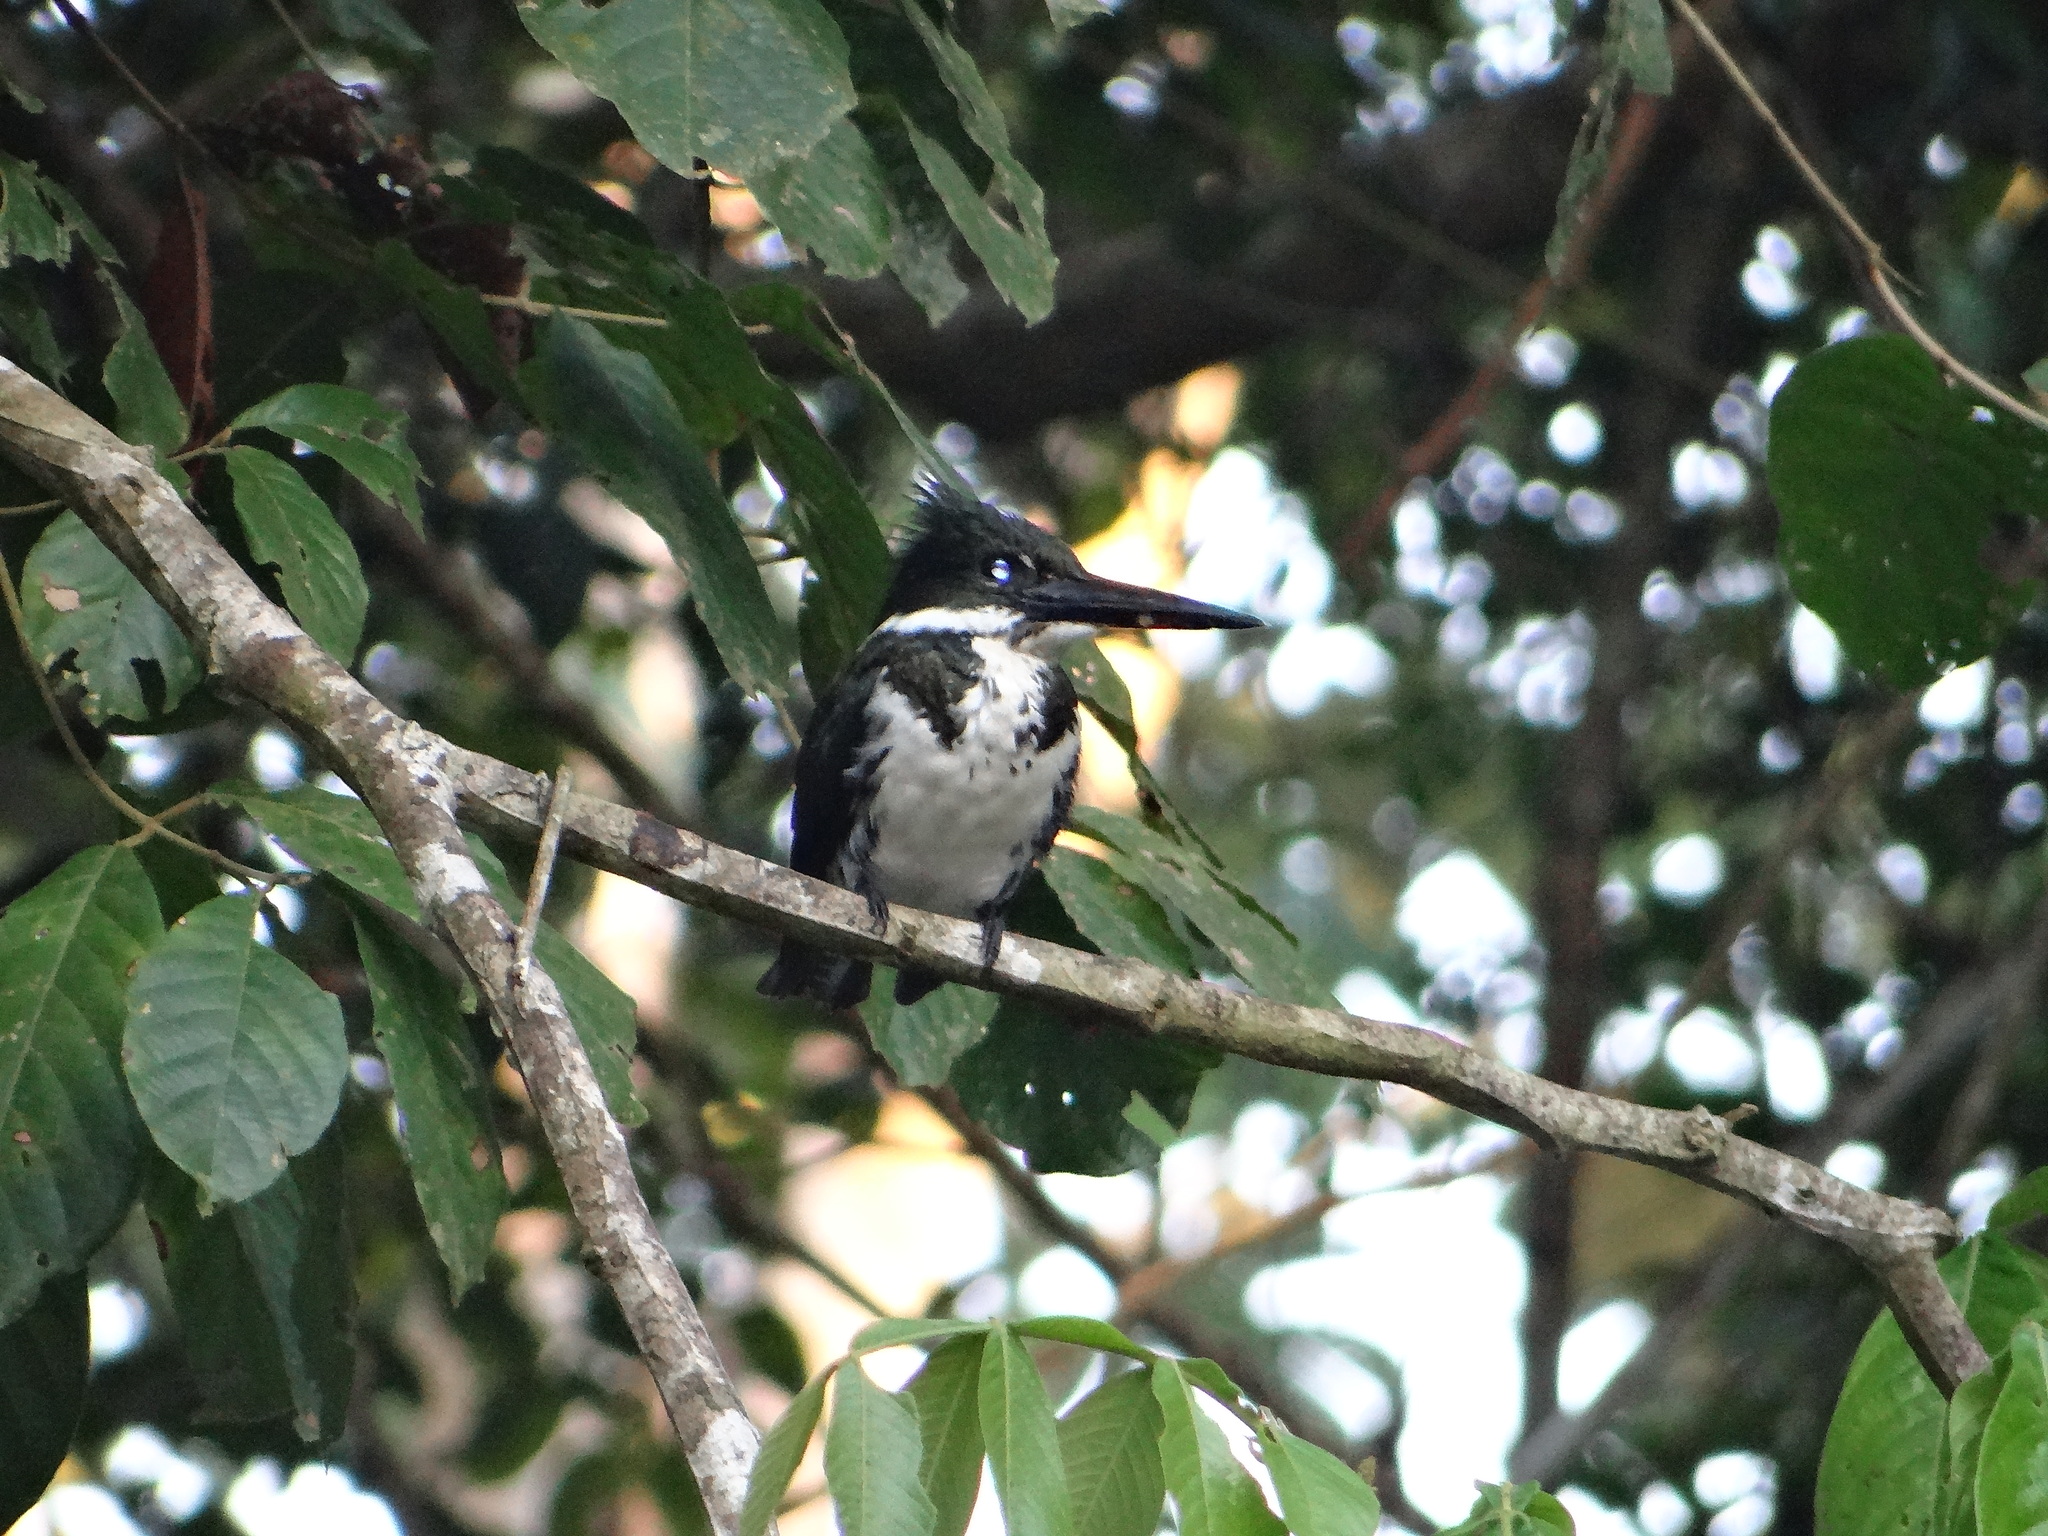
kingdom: Animalia
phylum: Chordata
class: Aves
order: Coraciiformes
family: Alcedinidae
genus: Chloroceryle
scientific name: Chloroceryle amazona
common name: Amazon kingfisher
